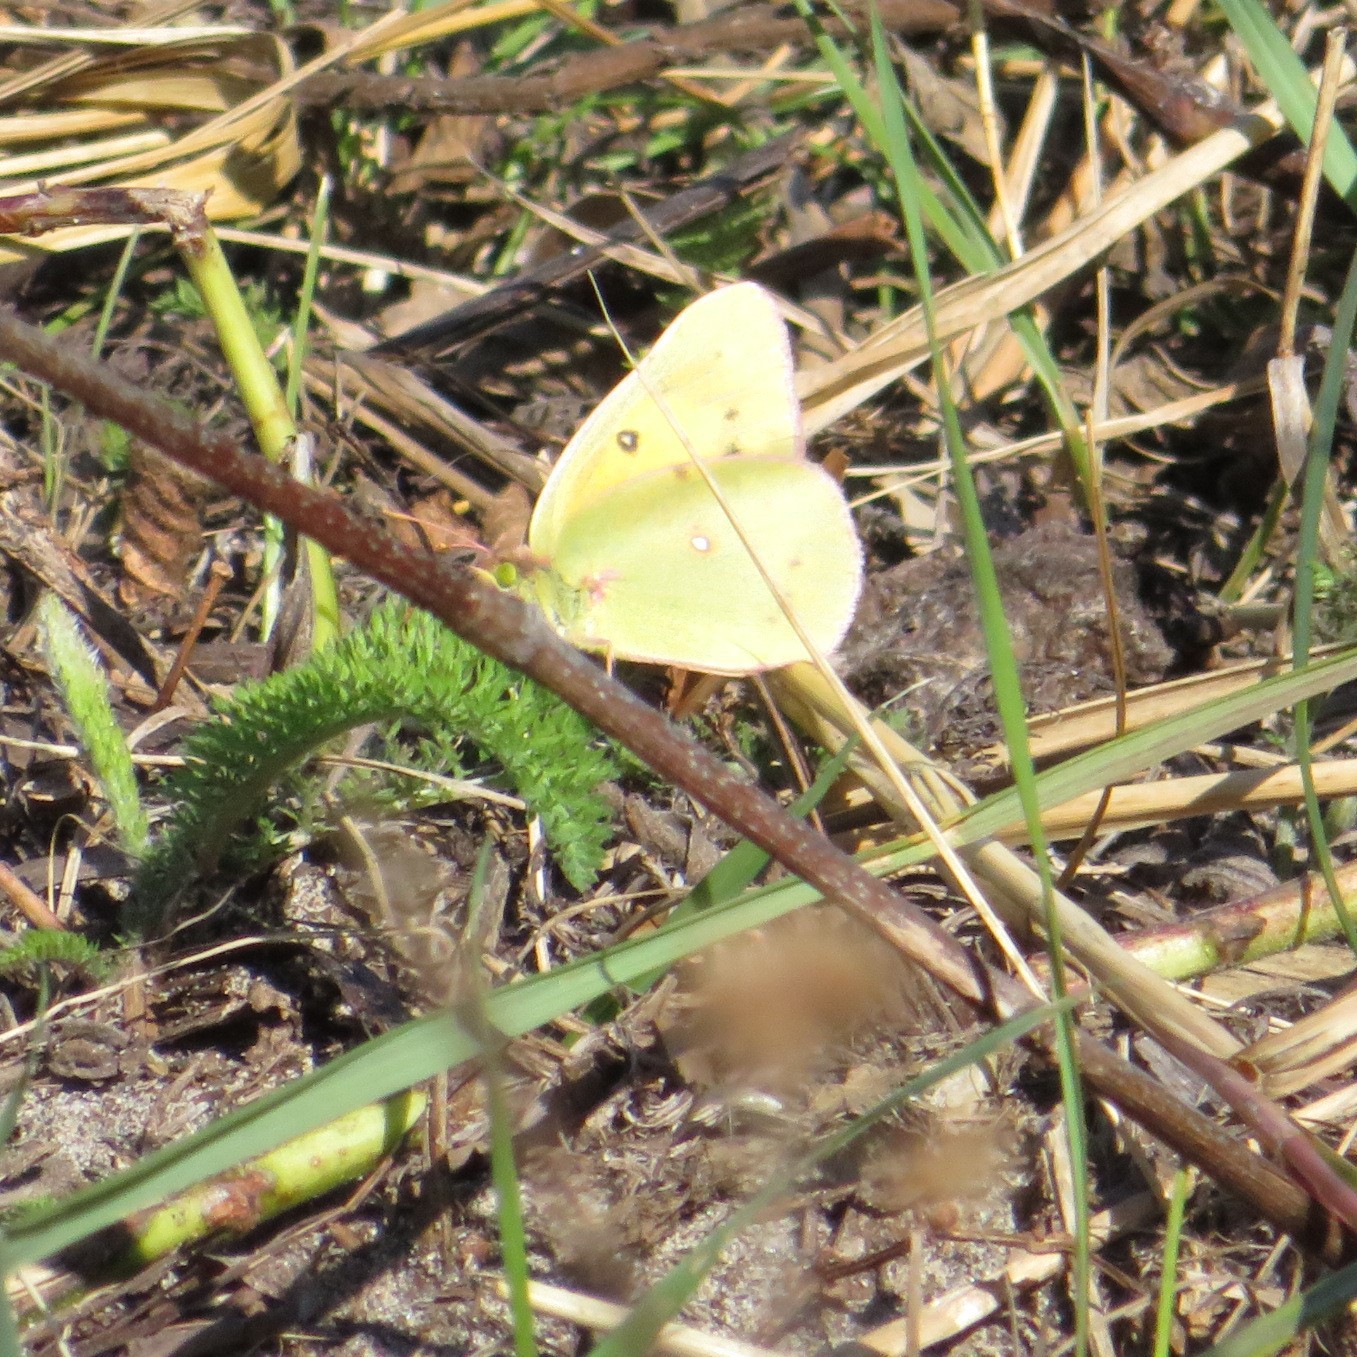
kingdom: Animalia
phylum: Arthropoda
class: Insecta
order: Lepidoptera
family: Pieridae
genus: Colias
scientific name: Colias philodice
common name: Clouded sulphur
